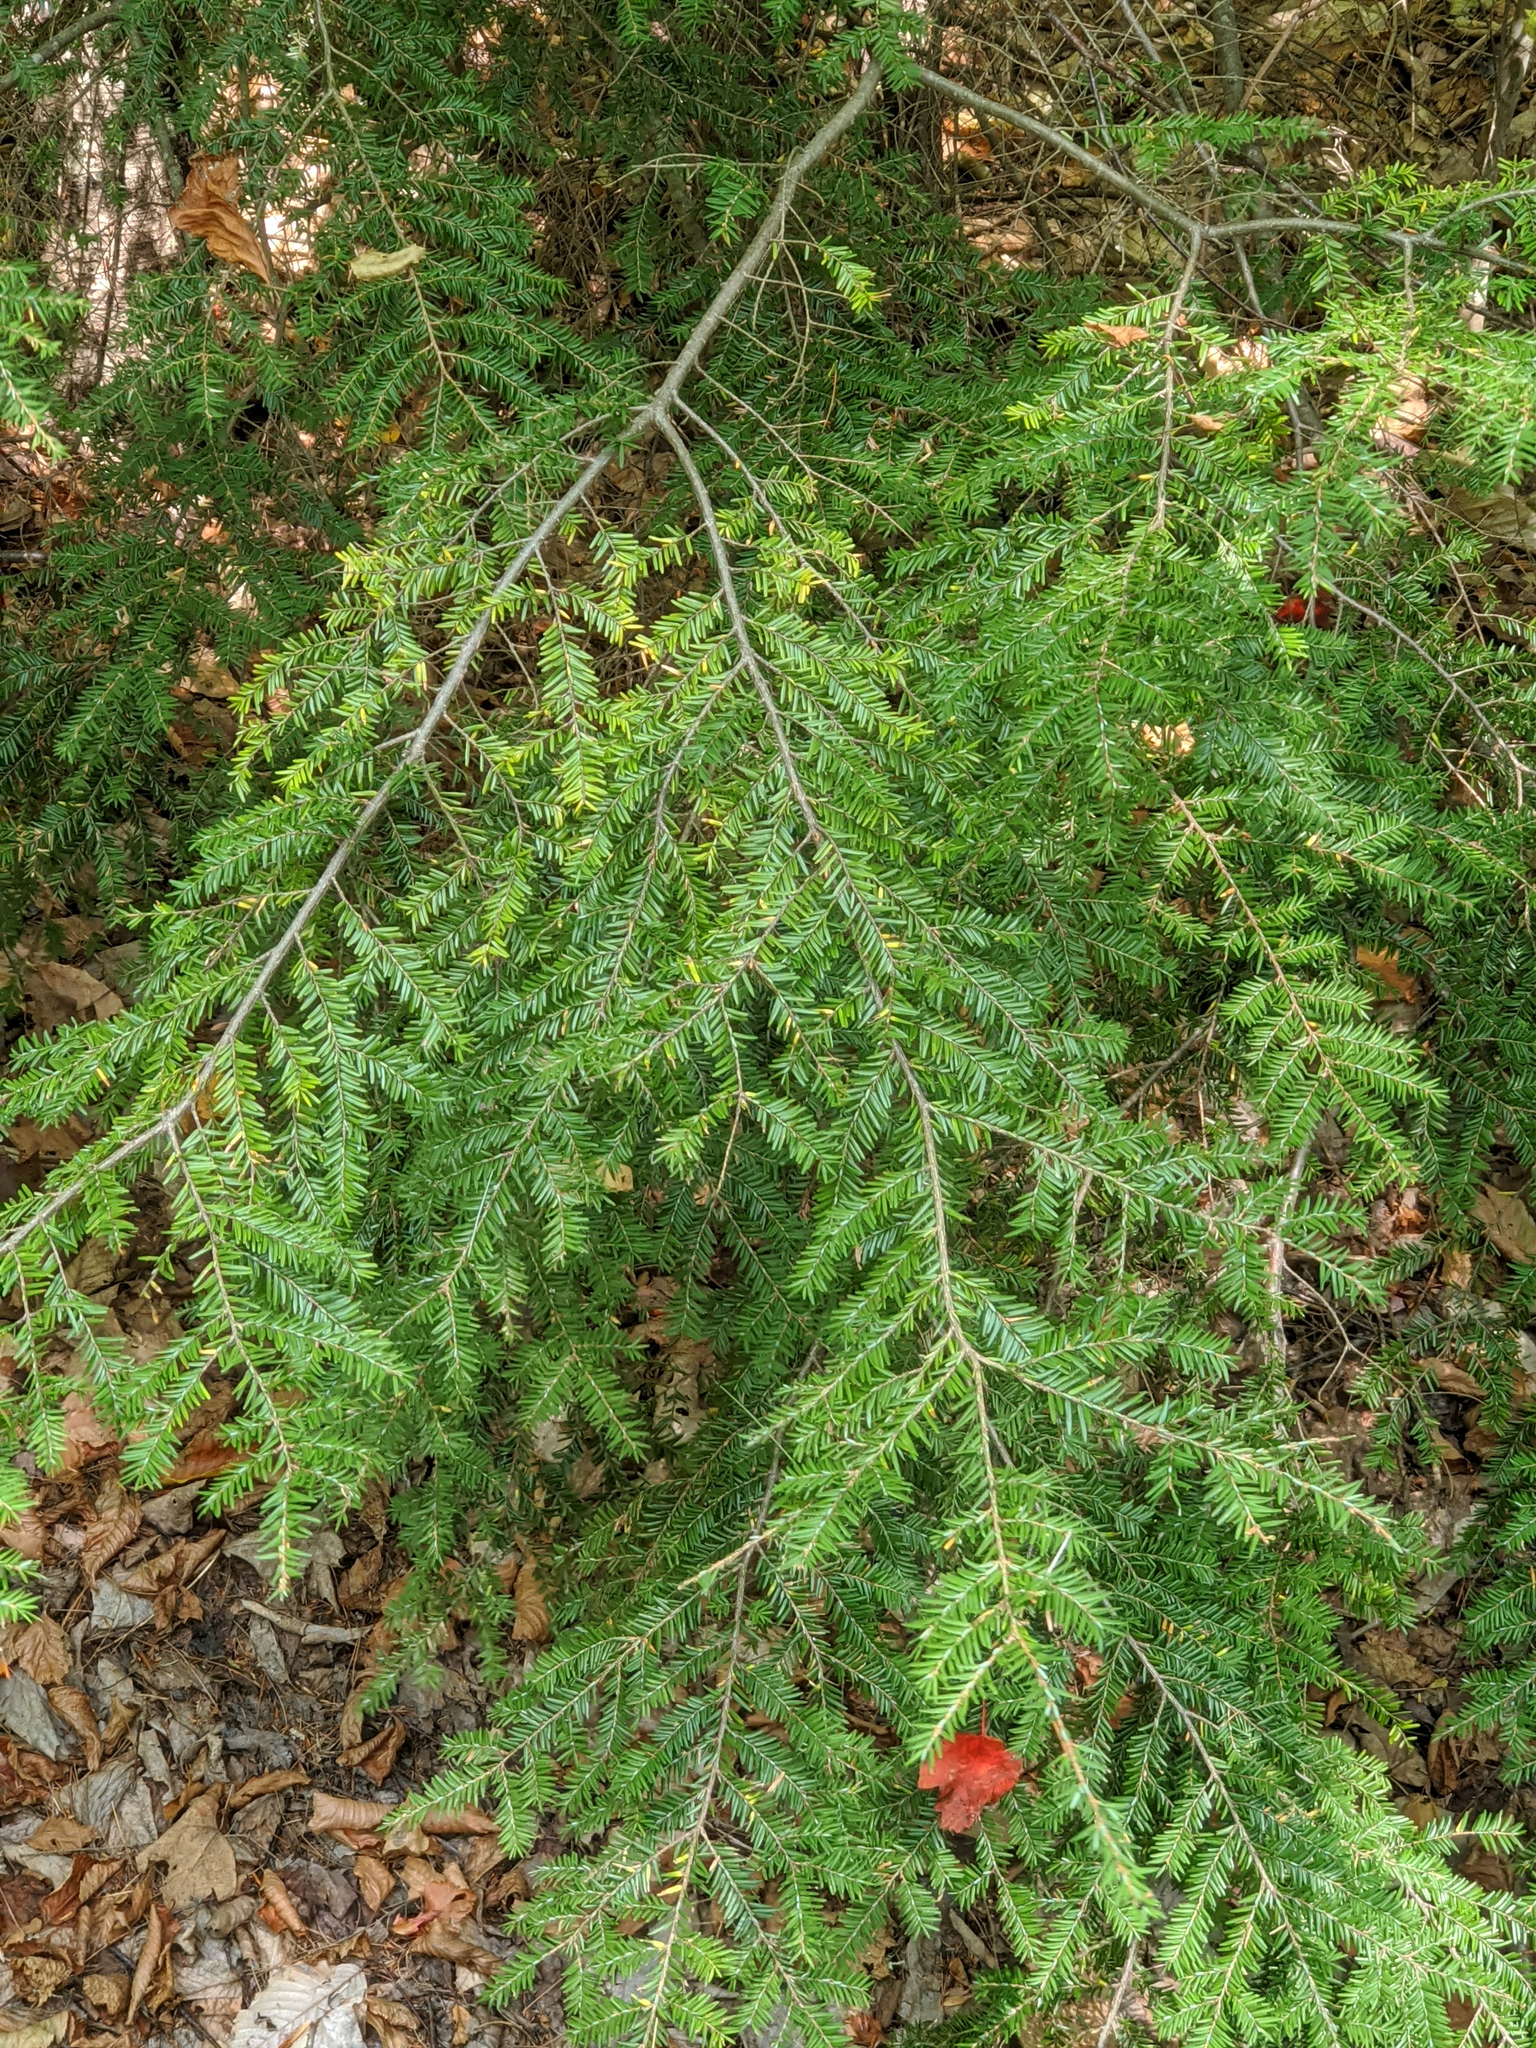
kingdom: Plantae
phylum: Tracheophyta
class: Pinopsida
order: Pinales
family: Pinaceae
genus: Tsuga
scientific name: Tsuga canadensis
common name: Eastern hemlock
